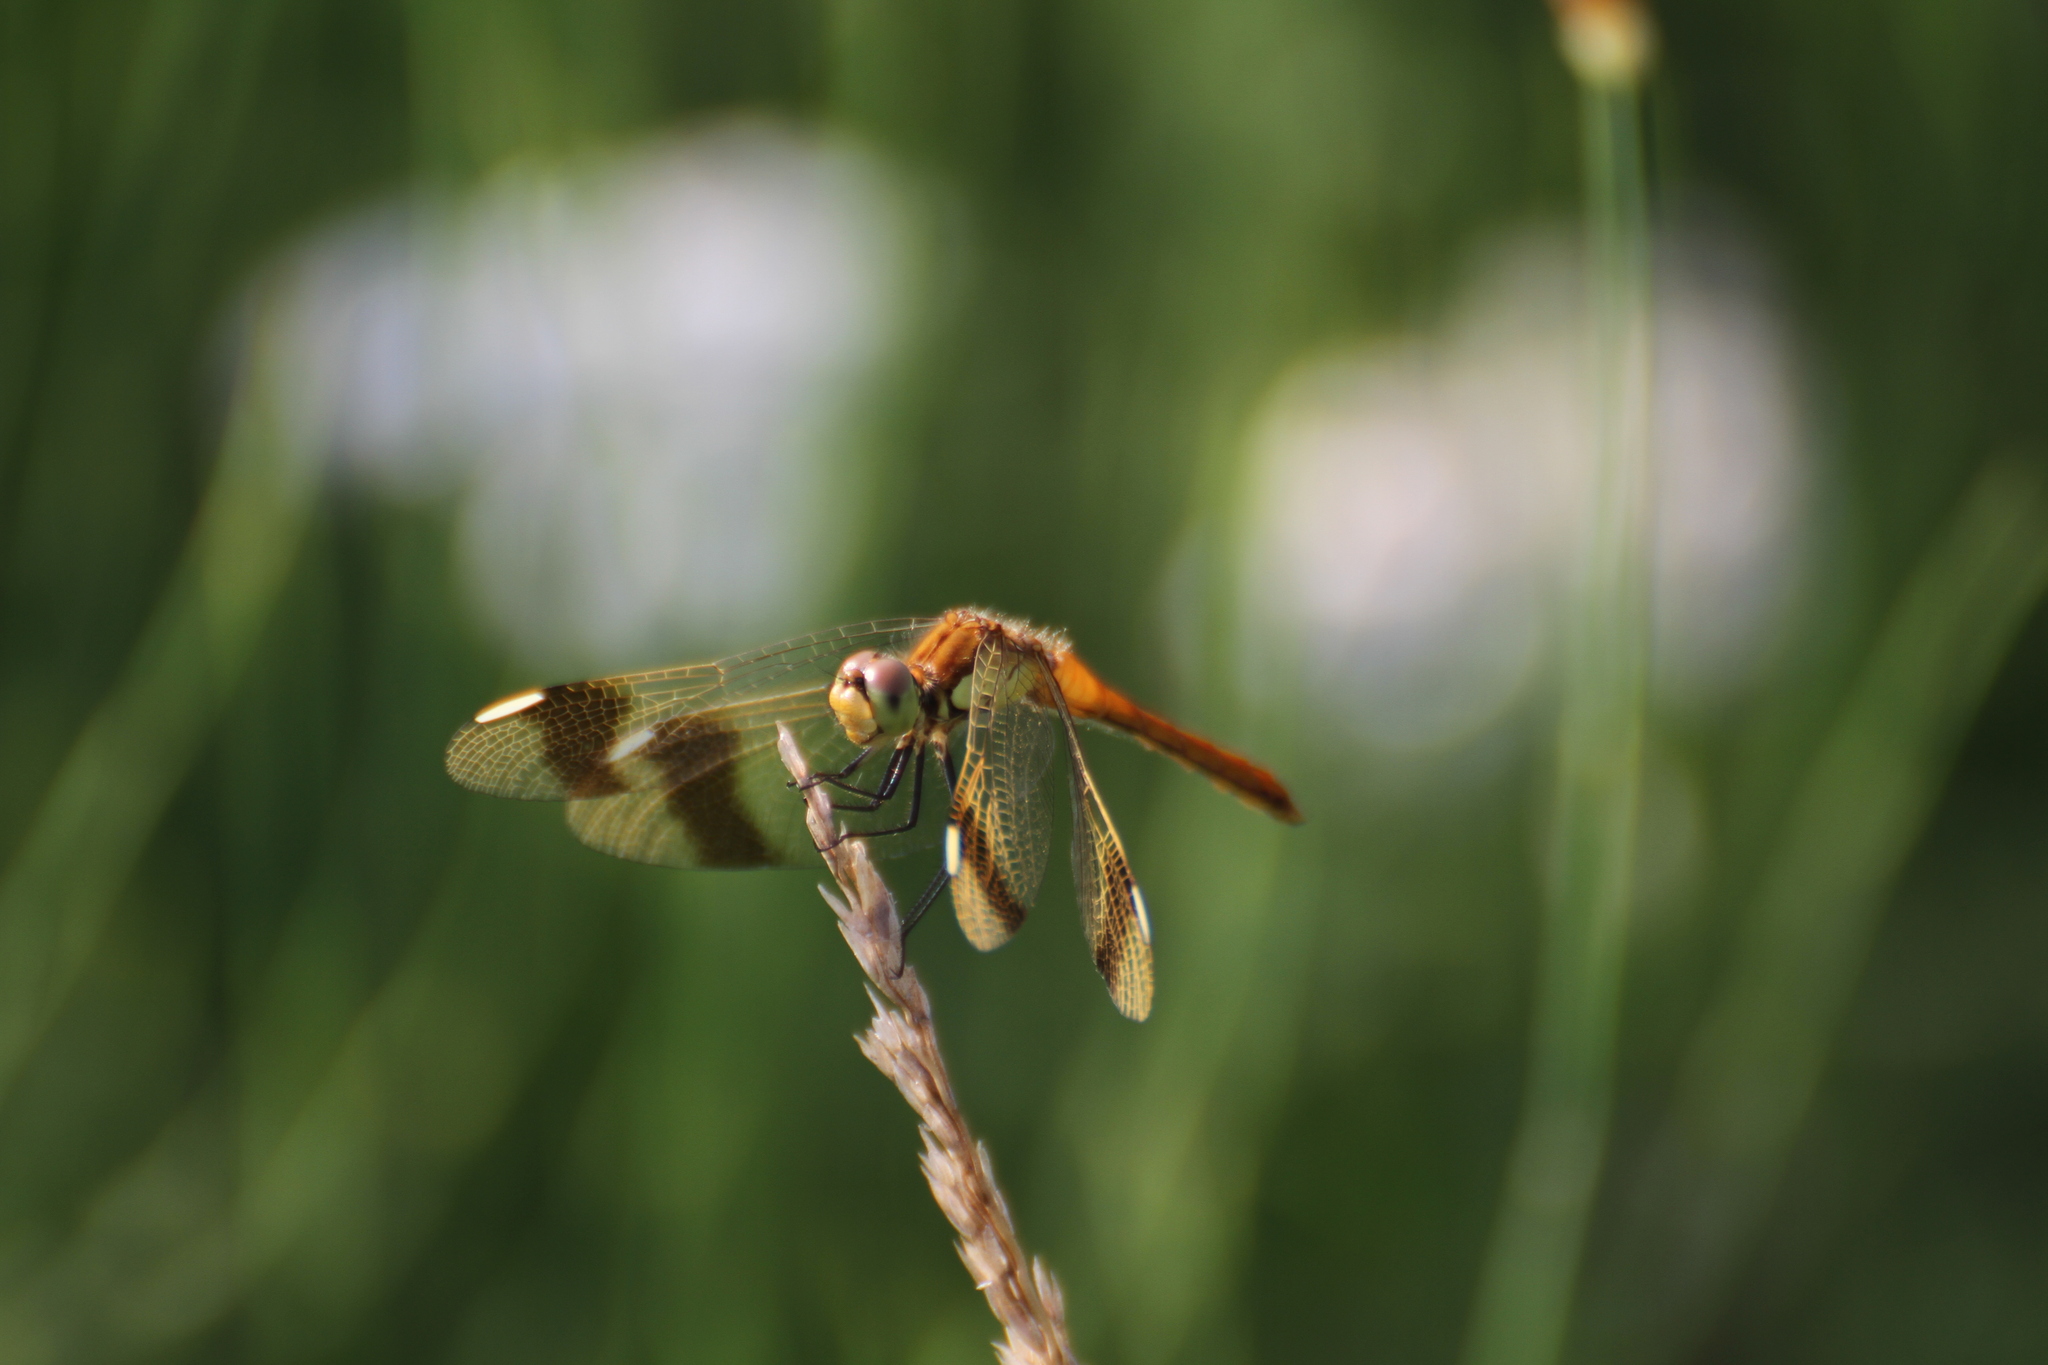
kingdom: Animalia
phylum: Arthropoda
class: Insecta
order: Odonata
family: Libellulidae
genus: Sympetrum
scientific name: Sympetrum pedemontanum
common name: Banded darter
